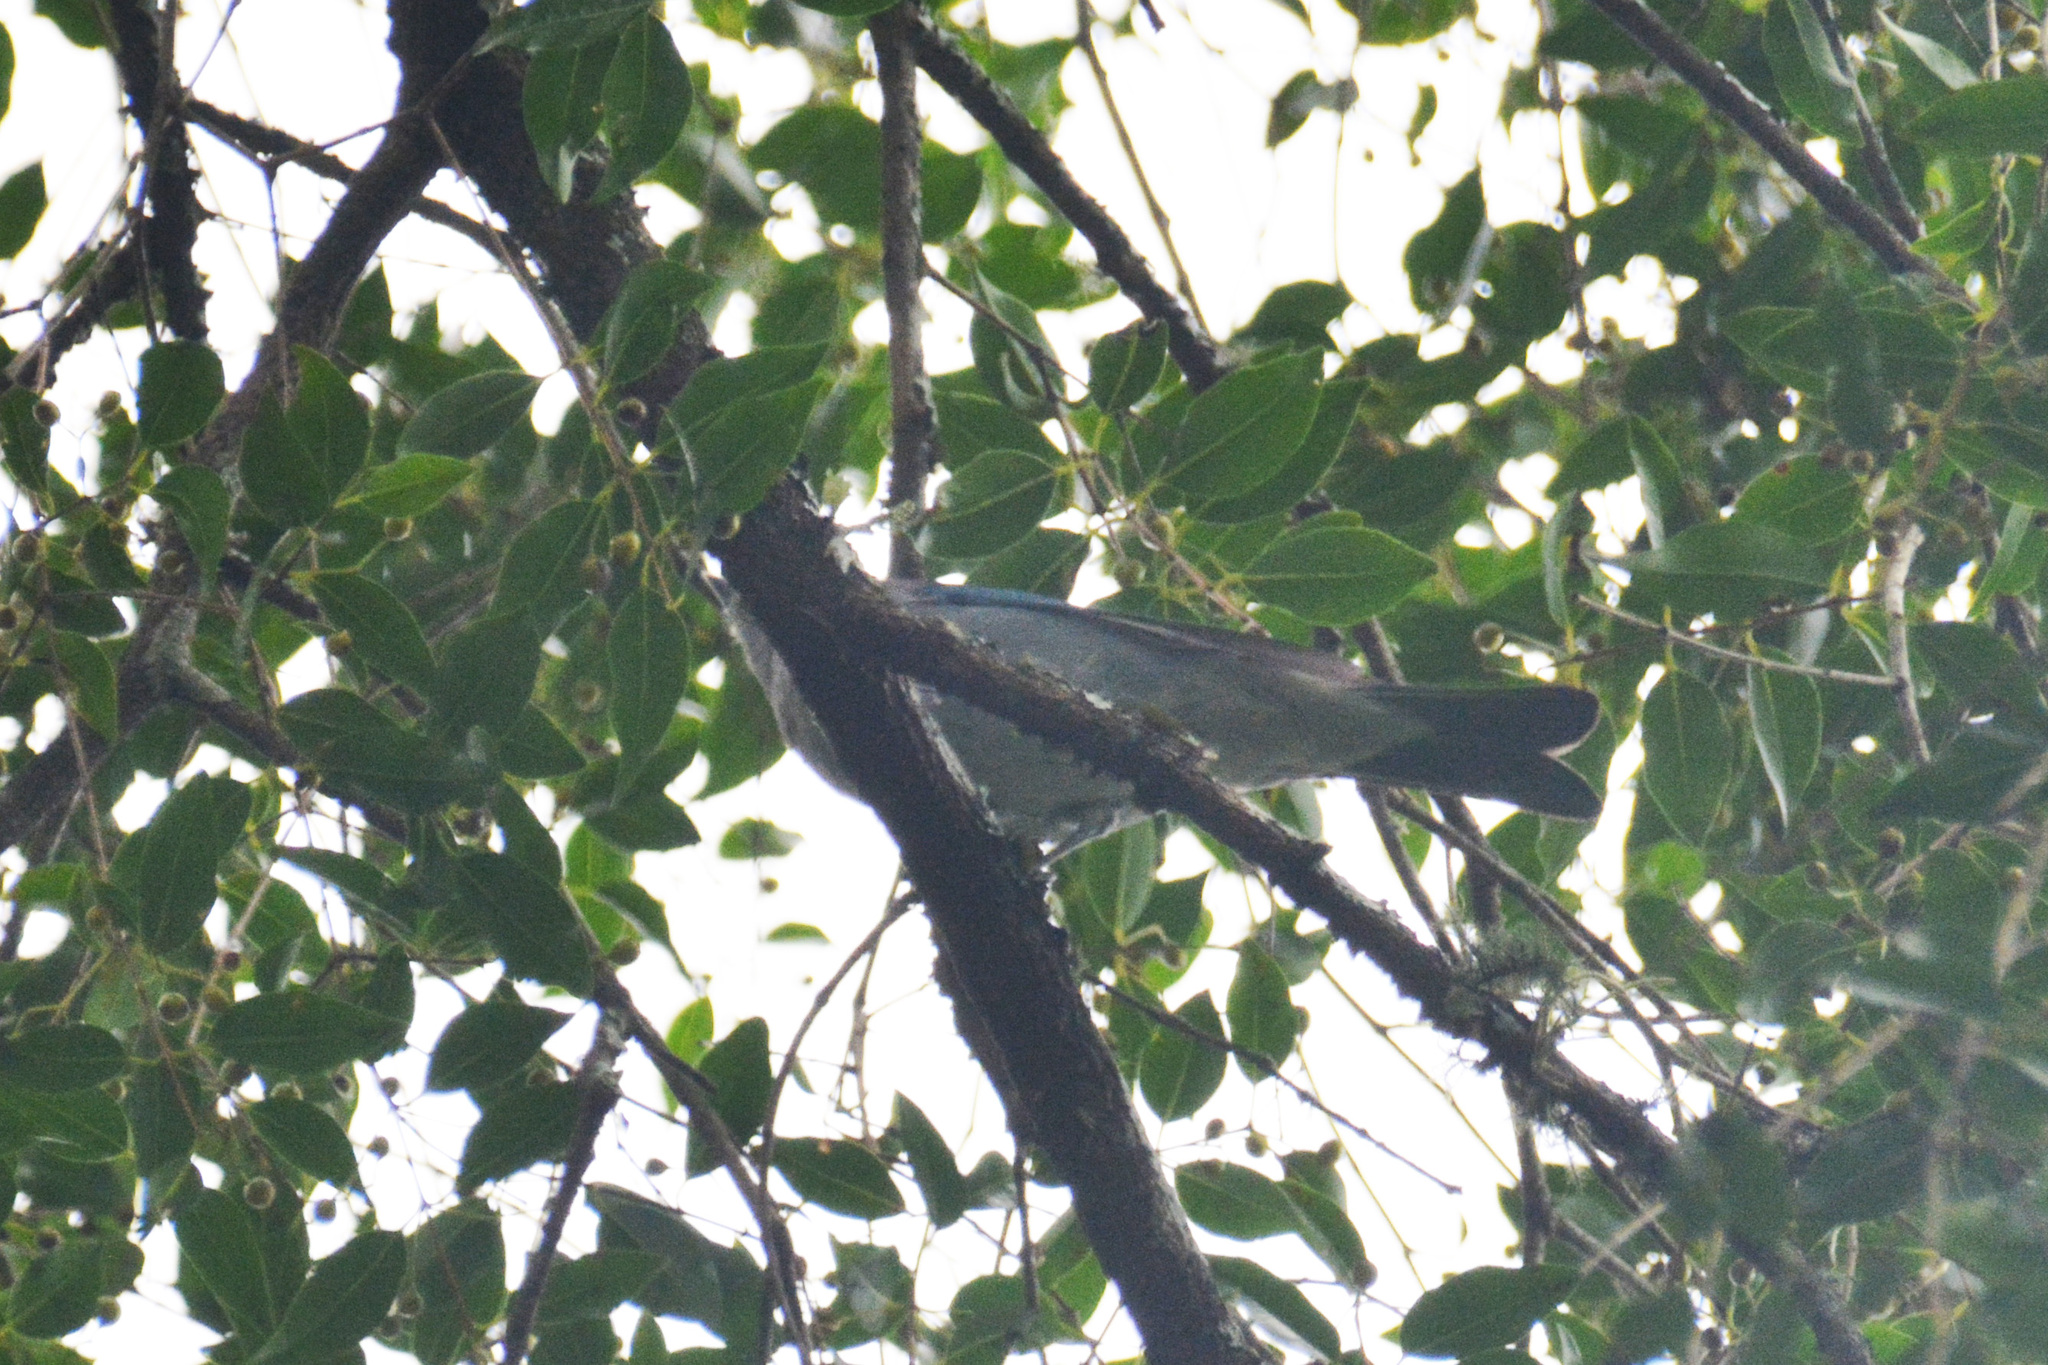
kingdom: Animalia
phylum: Chordata
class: Aves
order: Passeriformes
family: Thraupidae
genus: Thraupis
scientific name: Thraupis sayaca
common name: Sayaca tanager
